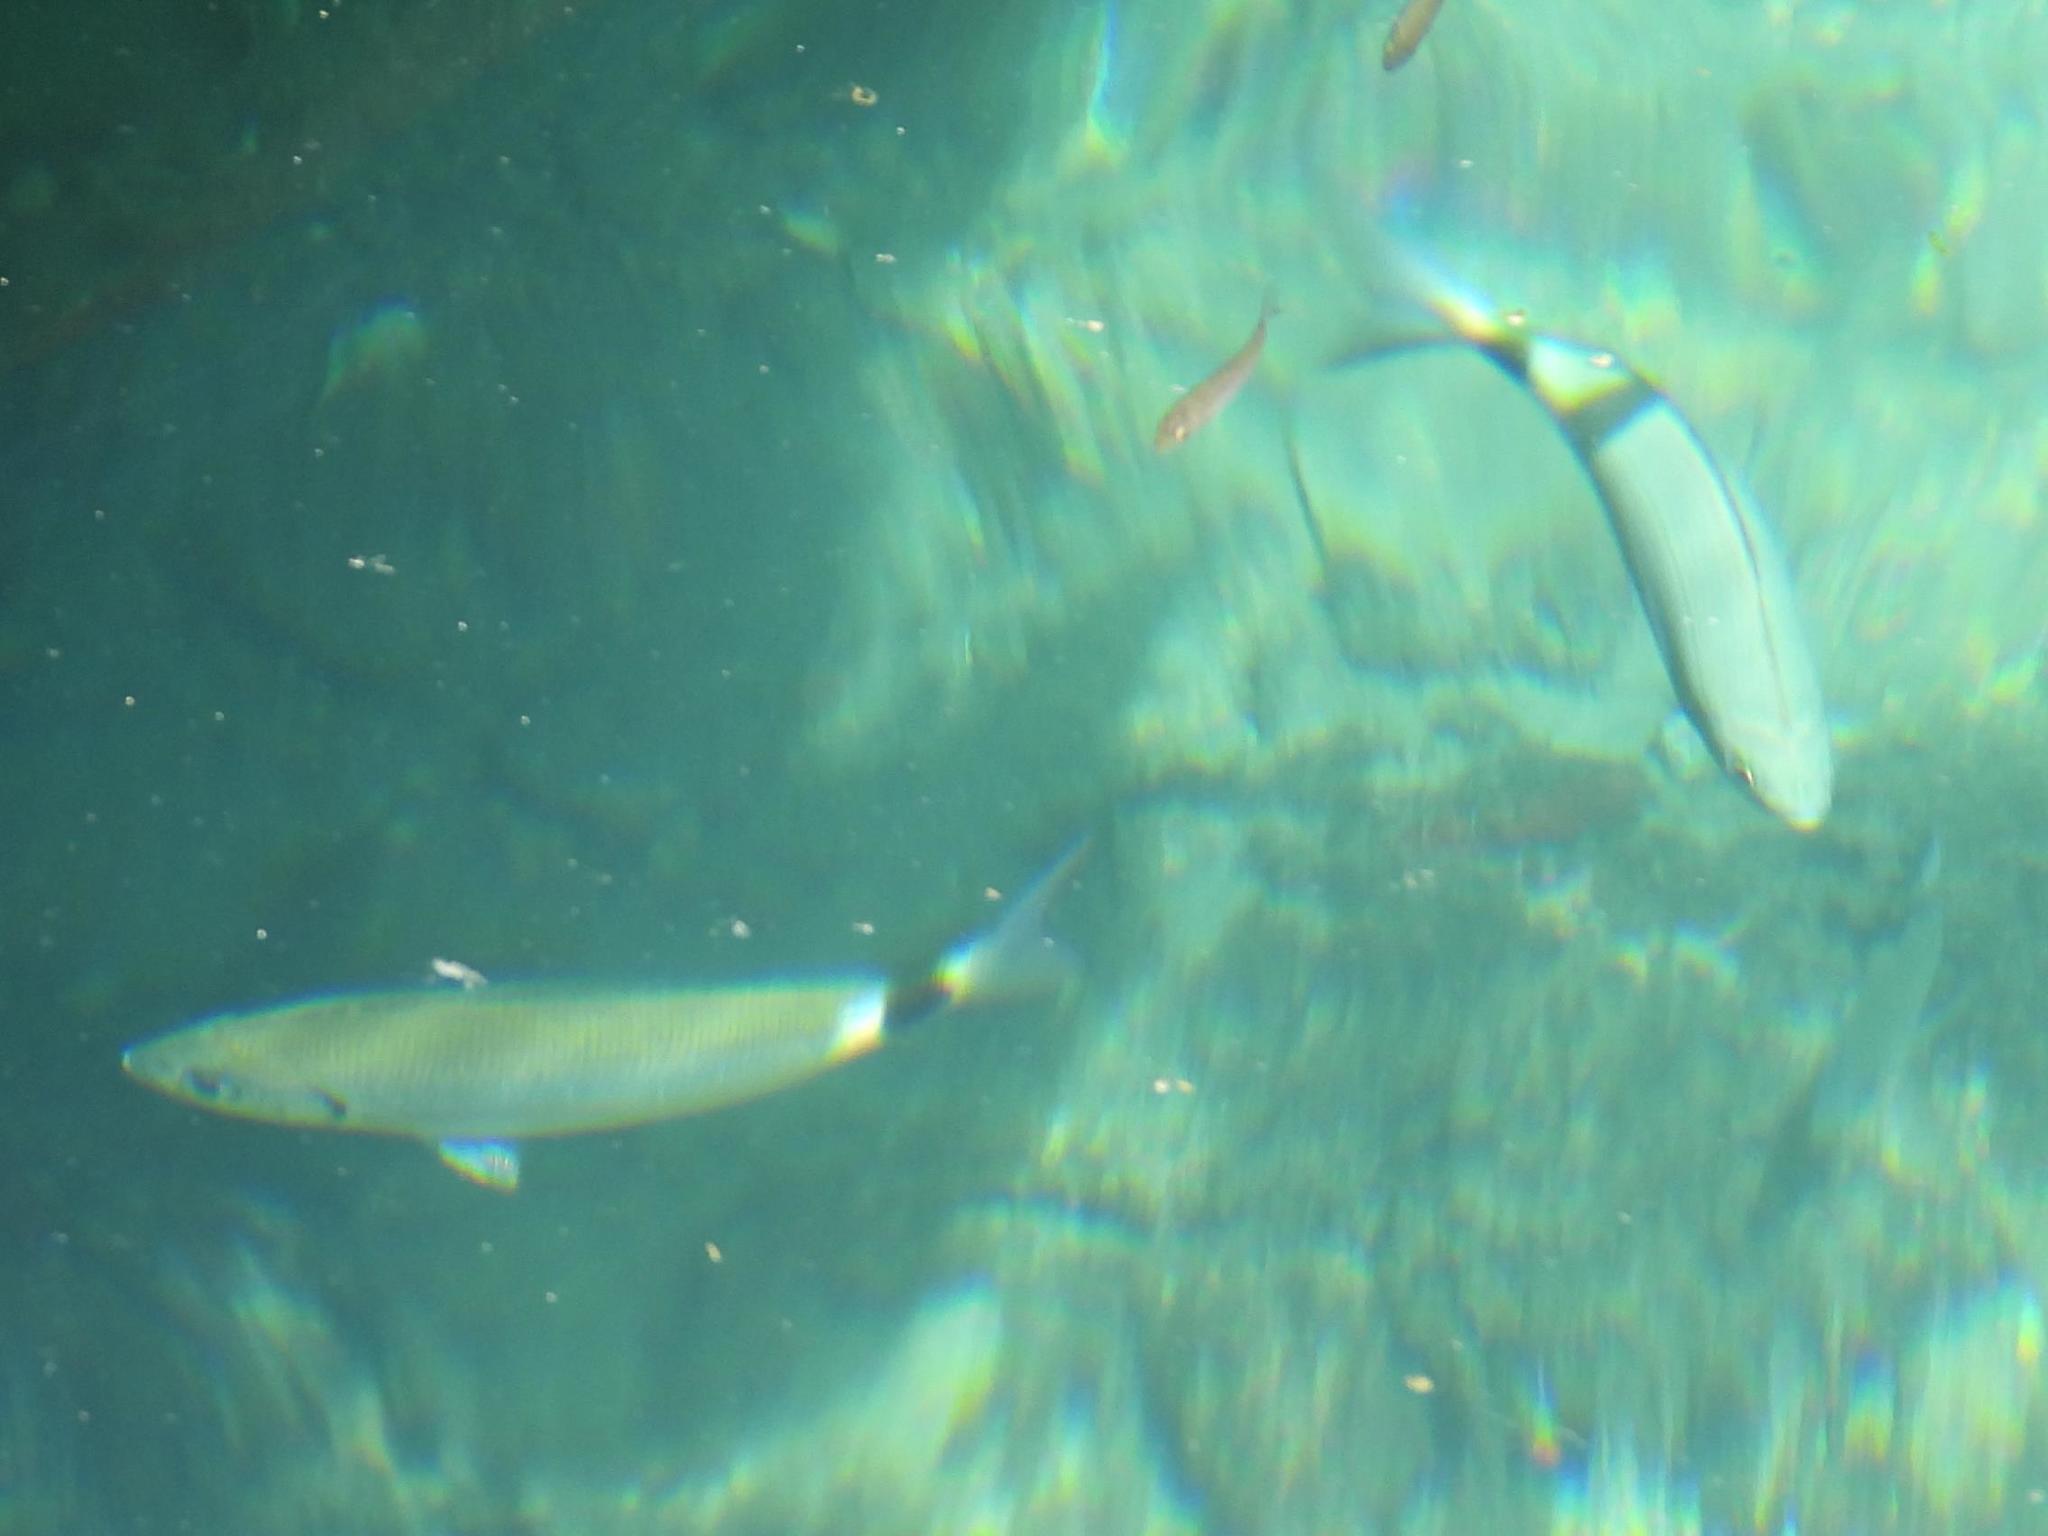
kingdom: Animalia
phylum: Chordata
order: Perciformes
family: Sparidae
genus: Oblada
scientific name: Oblada melanura
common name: Saddled seabream
